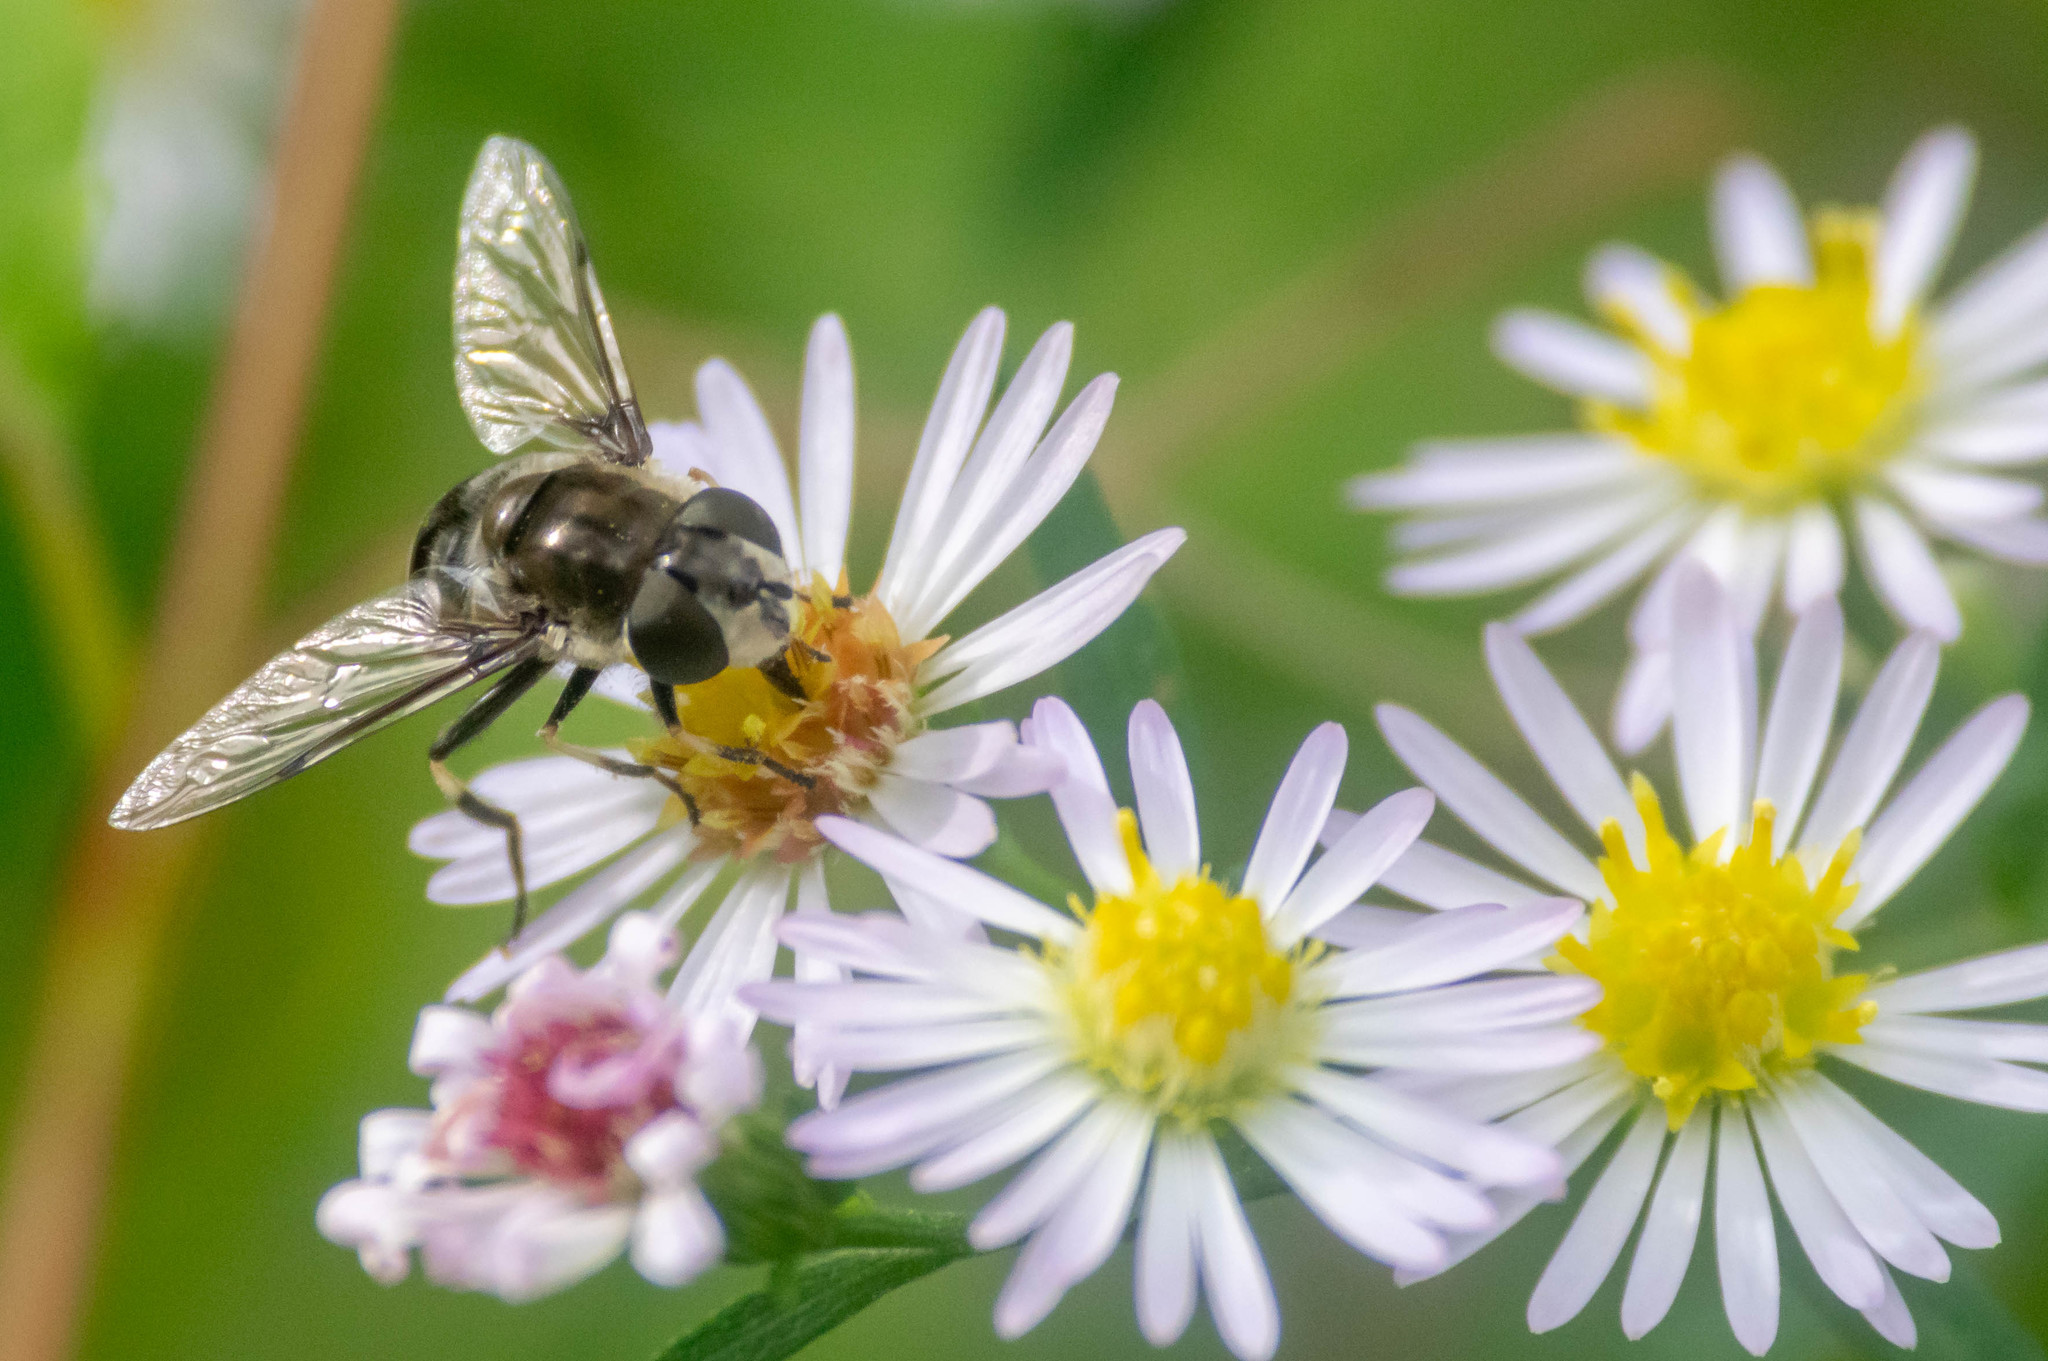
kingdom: Animalia
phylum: Arthropoda
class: Insecta
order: Diptera
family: Syrphidae
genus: Eristalis
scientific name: Eristalis dimidiata
